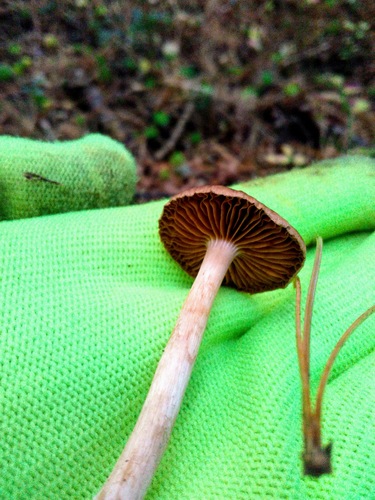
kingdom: Fungi
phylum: Basidiomycota
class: Agaricomycetes
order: Agaricales
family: Cortinariaceae
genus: Cortinarius
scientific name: Cortinarius
